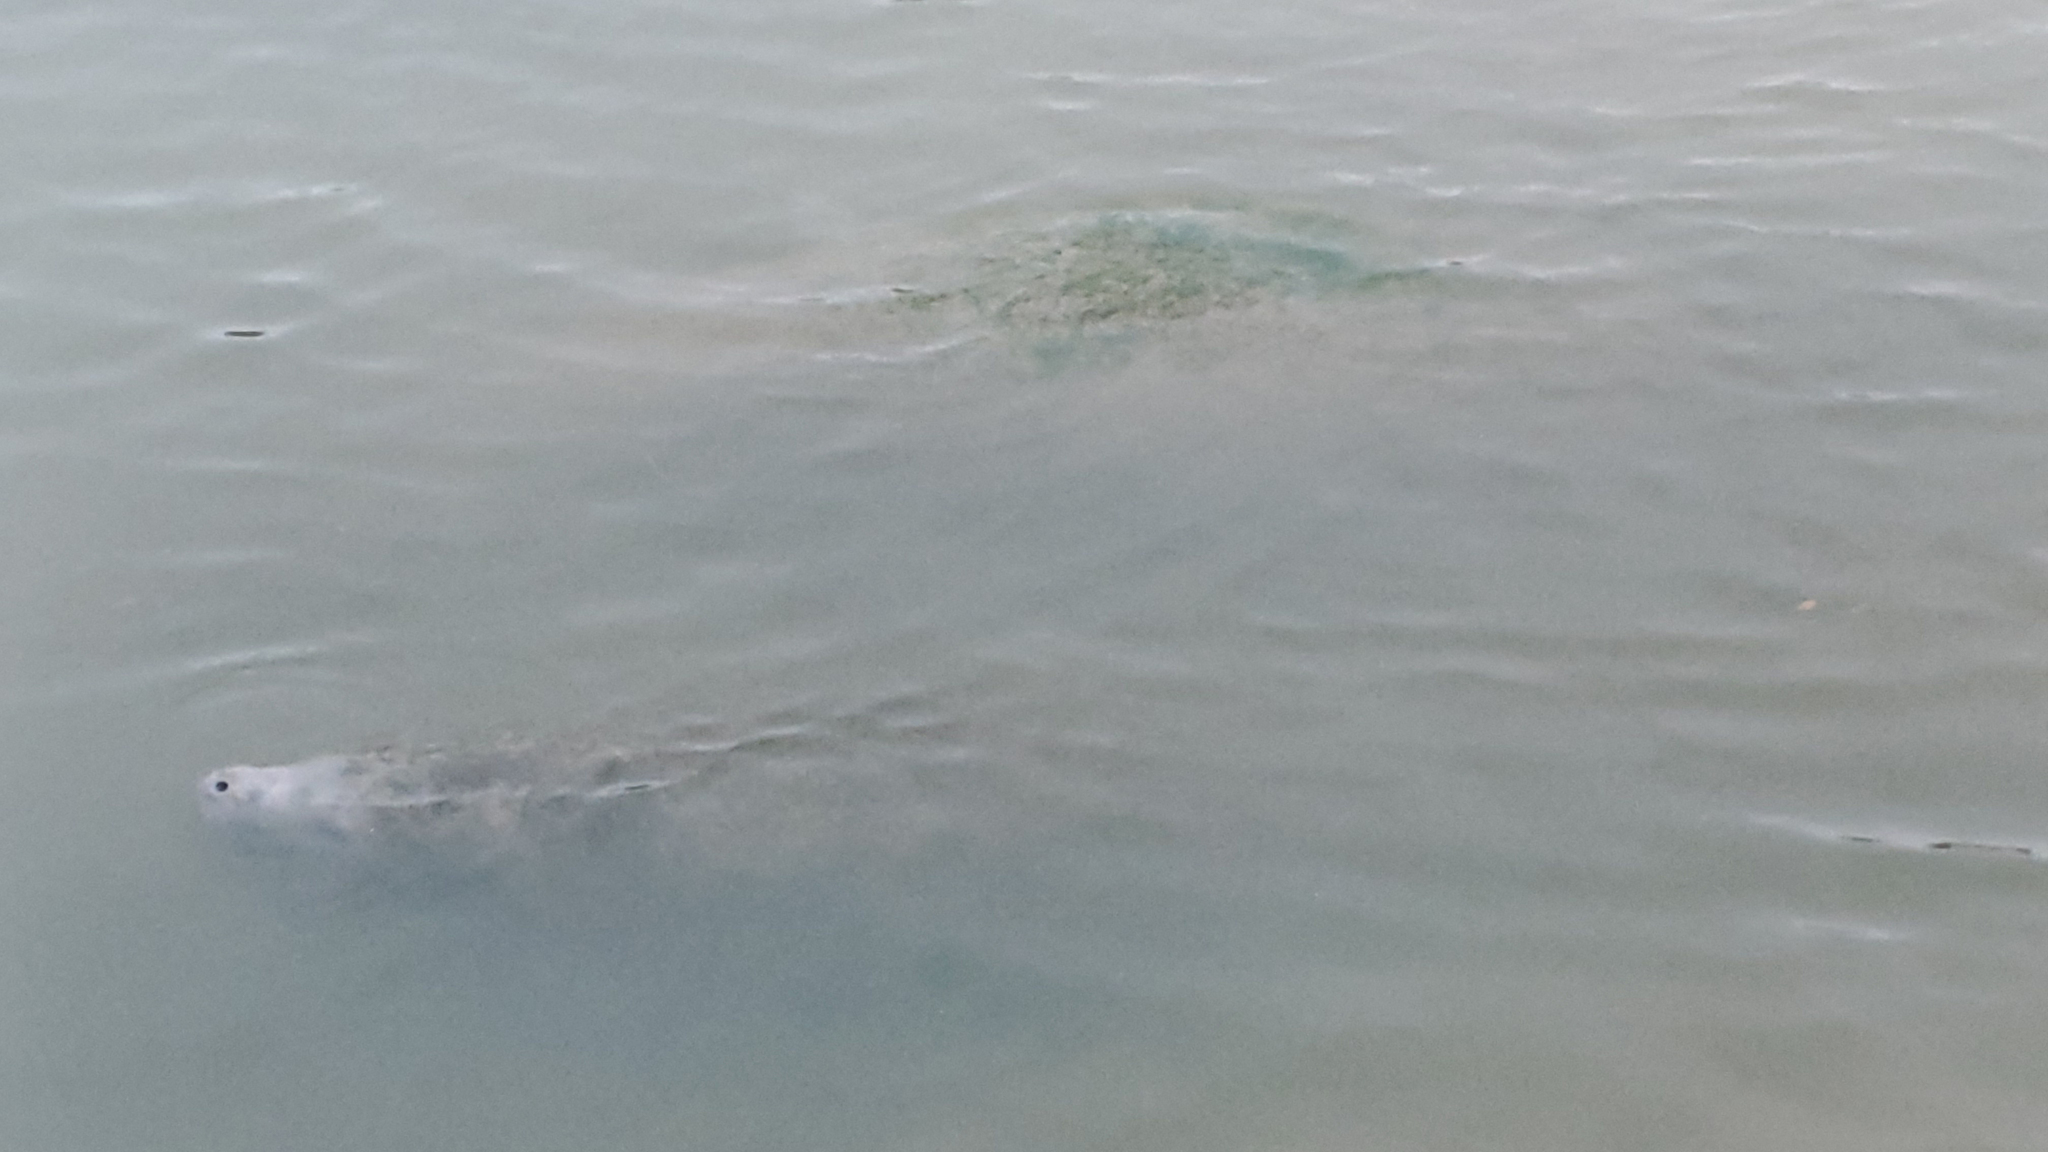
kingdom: Animalia
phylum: Chordata
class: Mammalia
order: Sirenia
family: Trichechidae
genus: Trichechus
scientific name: Trichechus manatus
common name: West indian manatee
